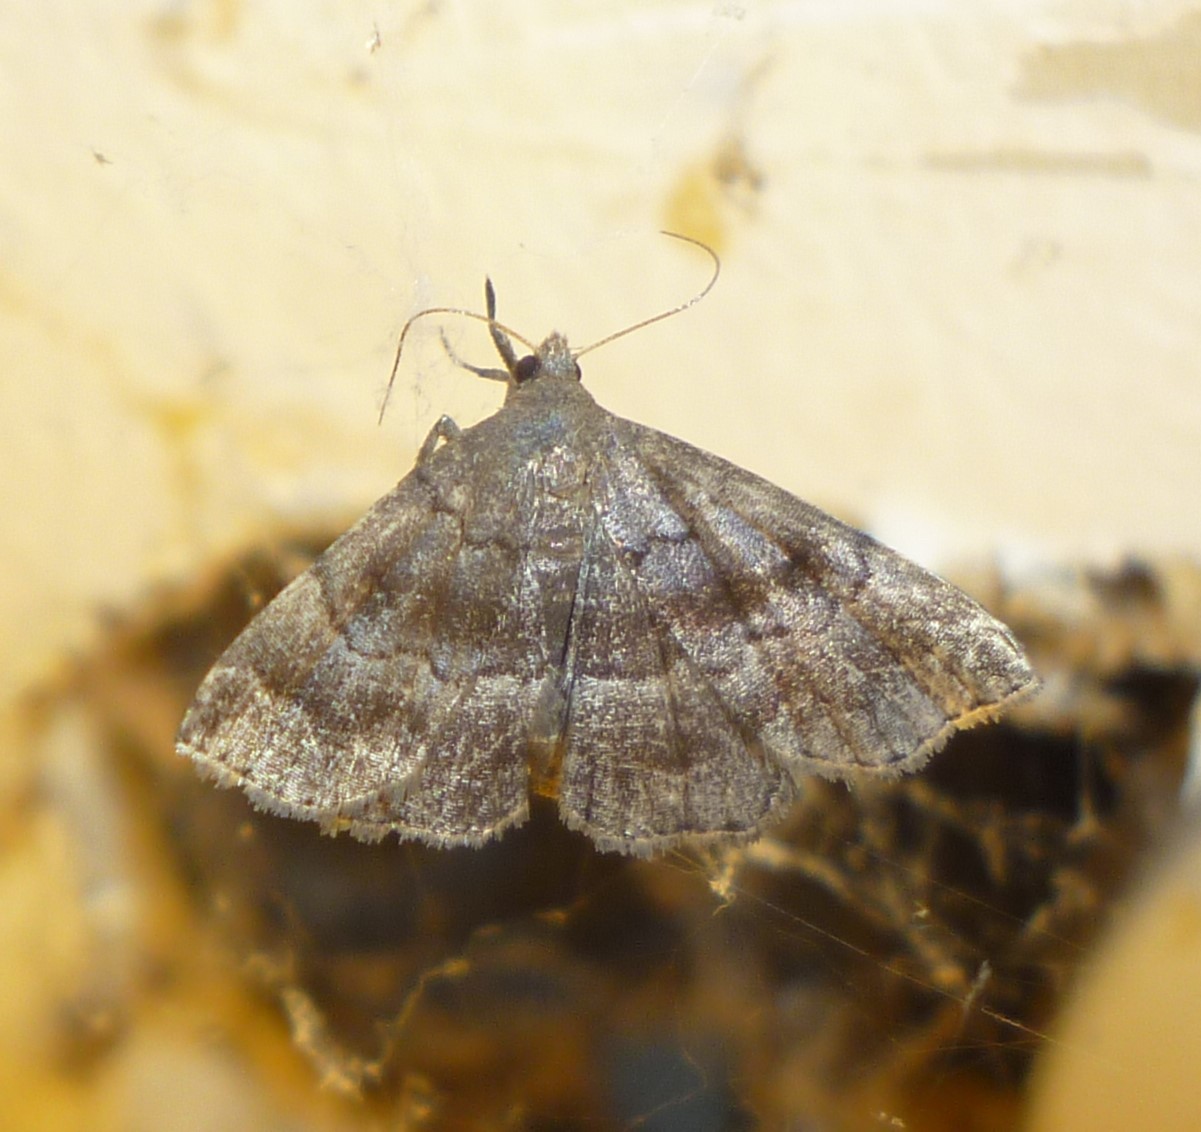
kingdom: Animalia
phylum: Arthropoda
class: Insecta
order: Lepidoptera
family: Erebidae
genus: Phalaenostola
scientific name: Phalaenostola larentioides
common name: Black-banded owlet
